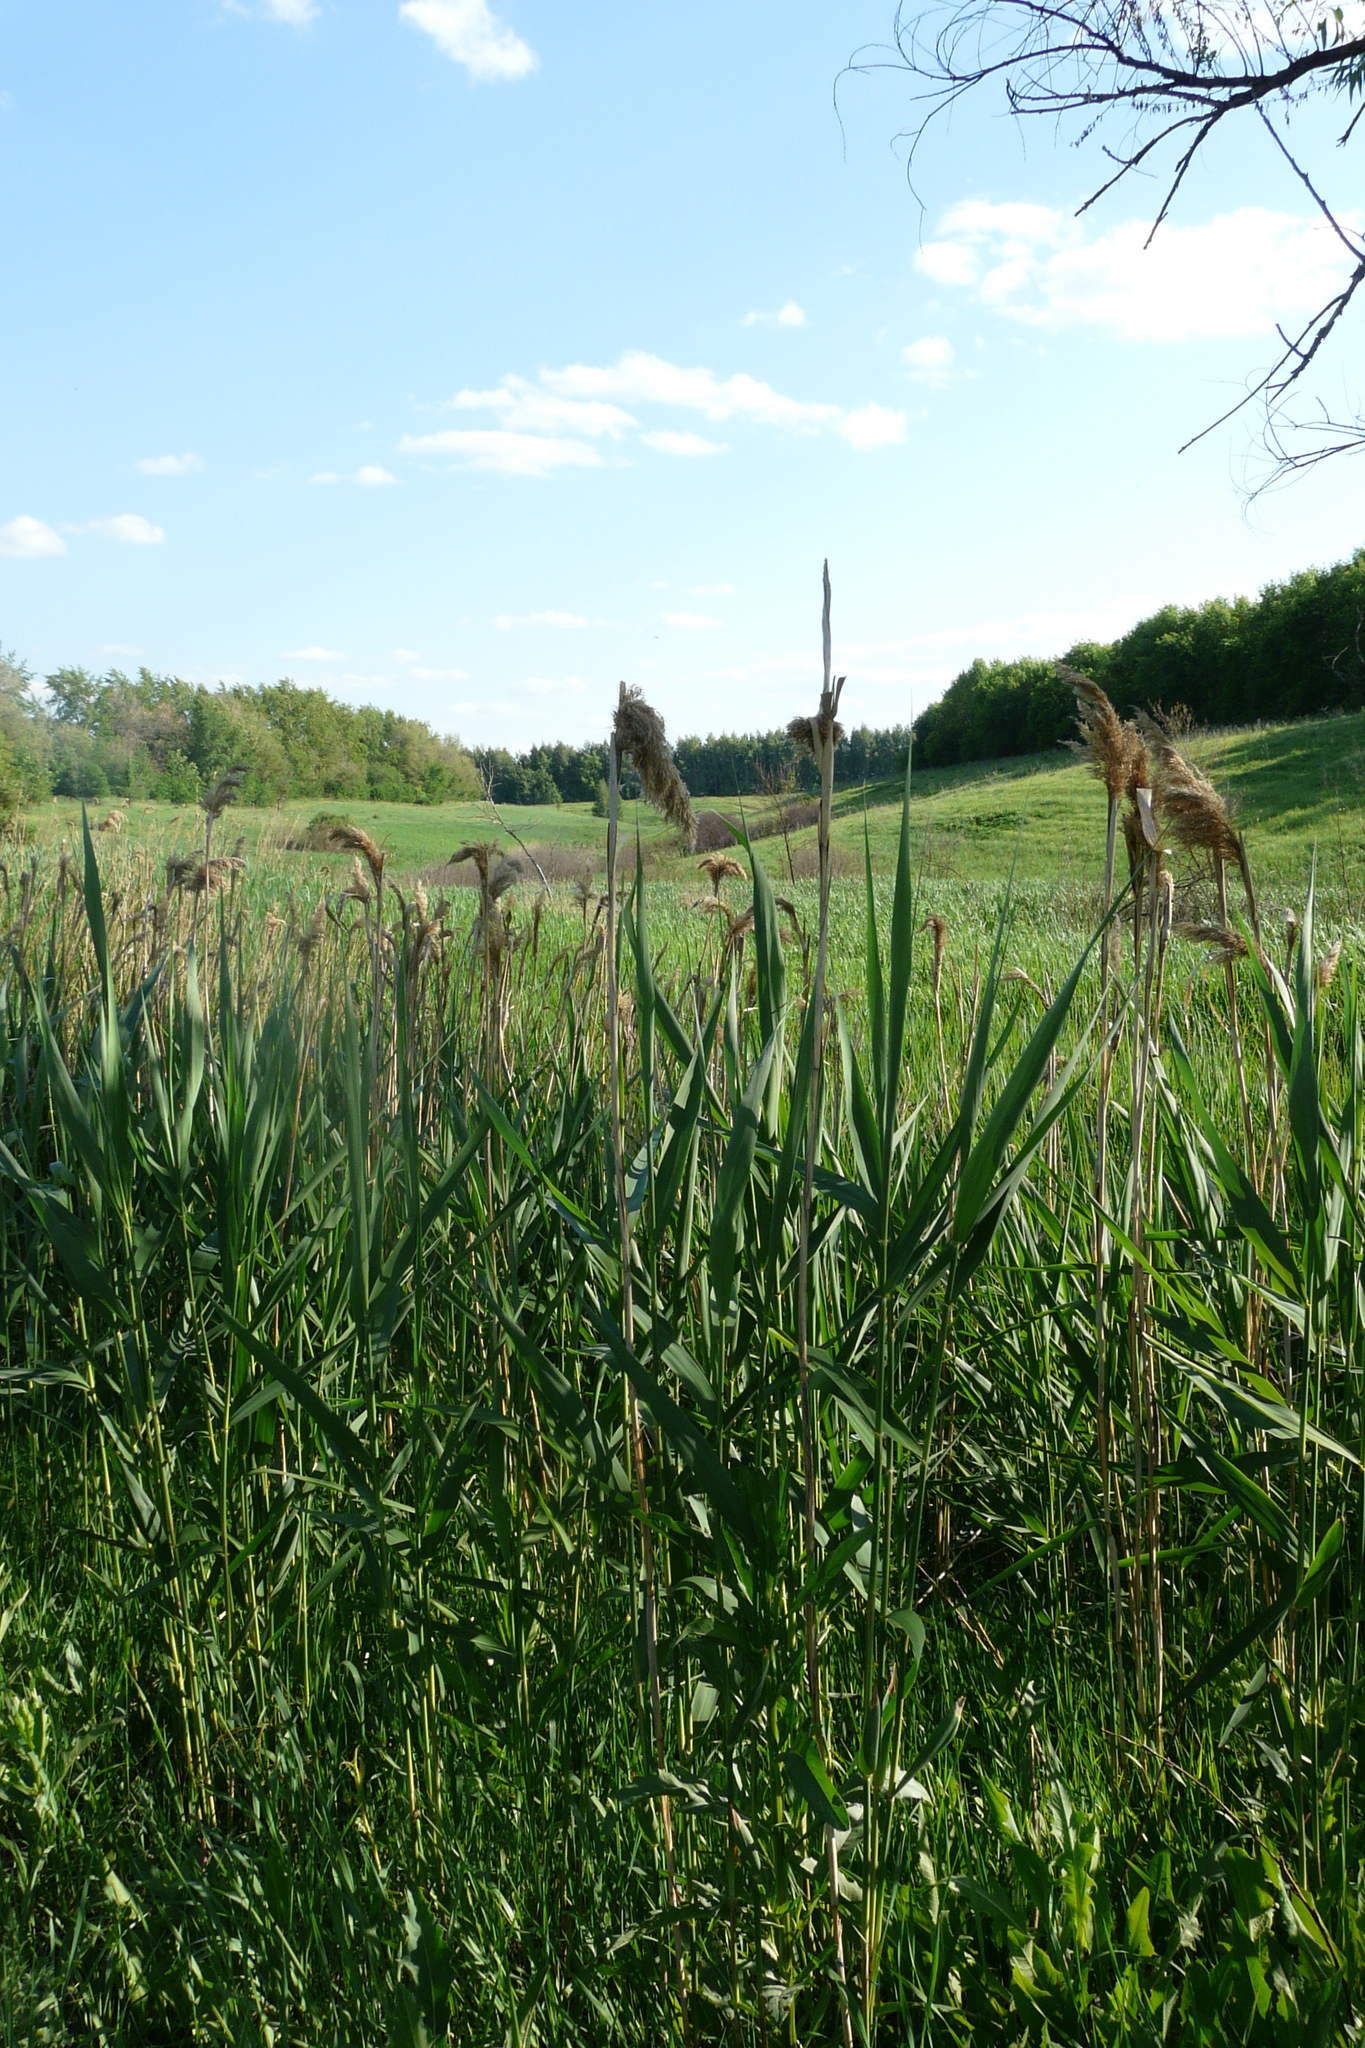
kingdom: Plantae
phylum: Tracheophyta
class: Liliopsida
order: Poales
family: Poaceae
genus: Phragmites
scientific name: Phragmites australis
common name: Common reed
